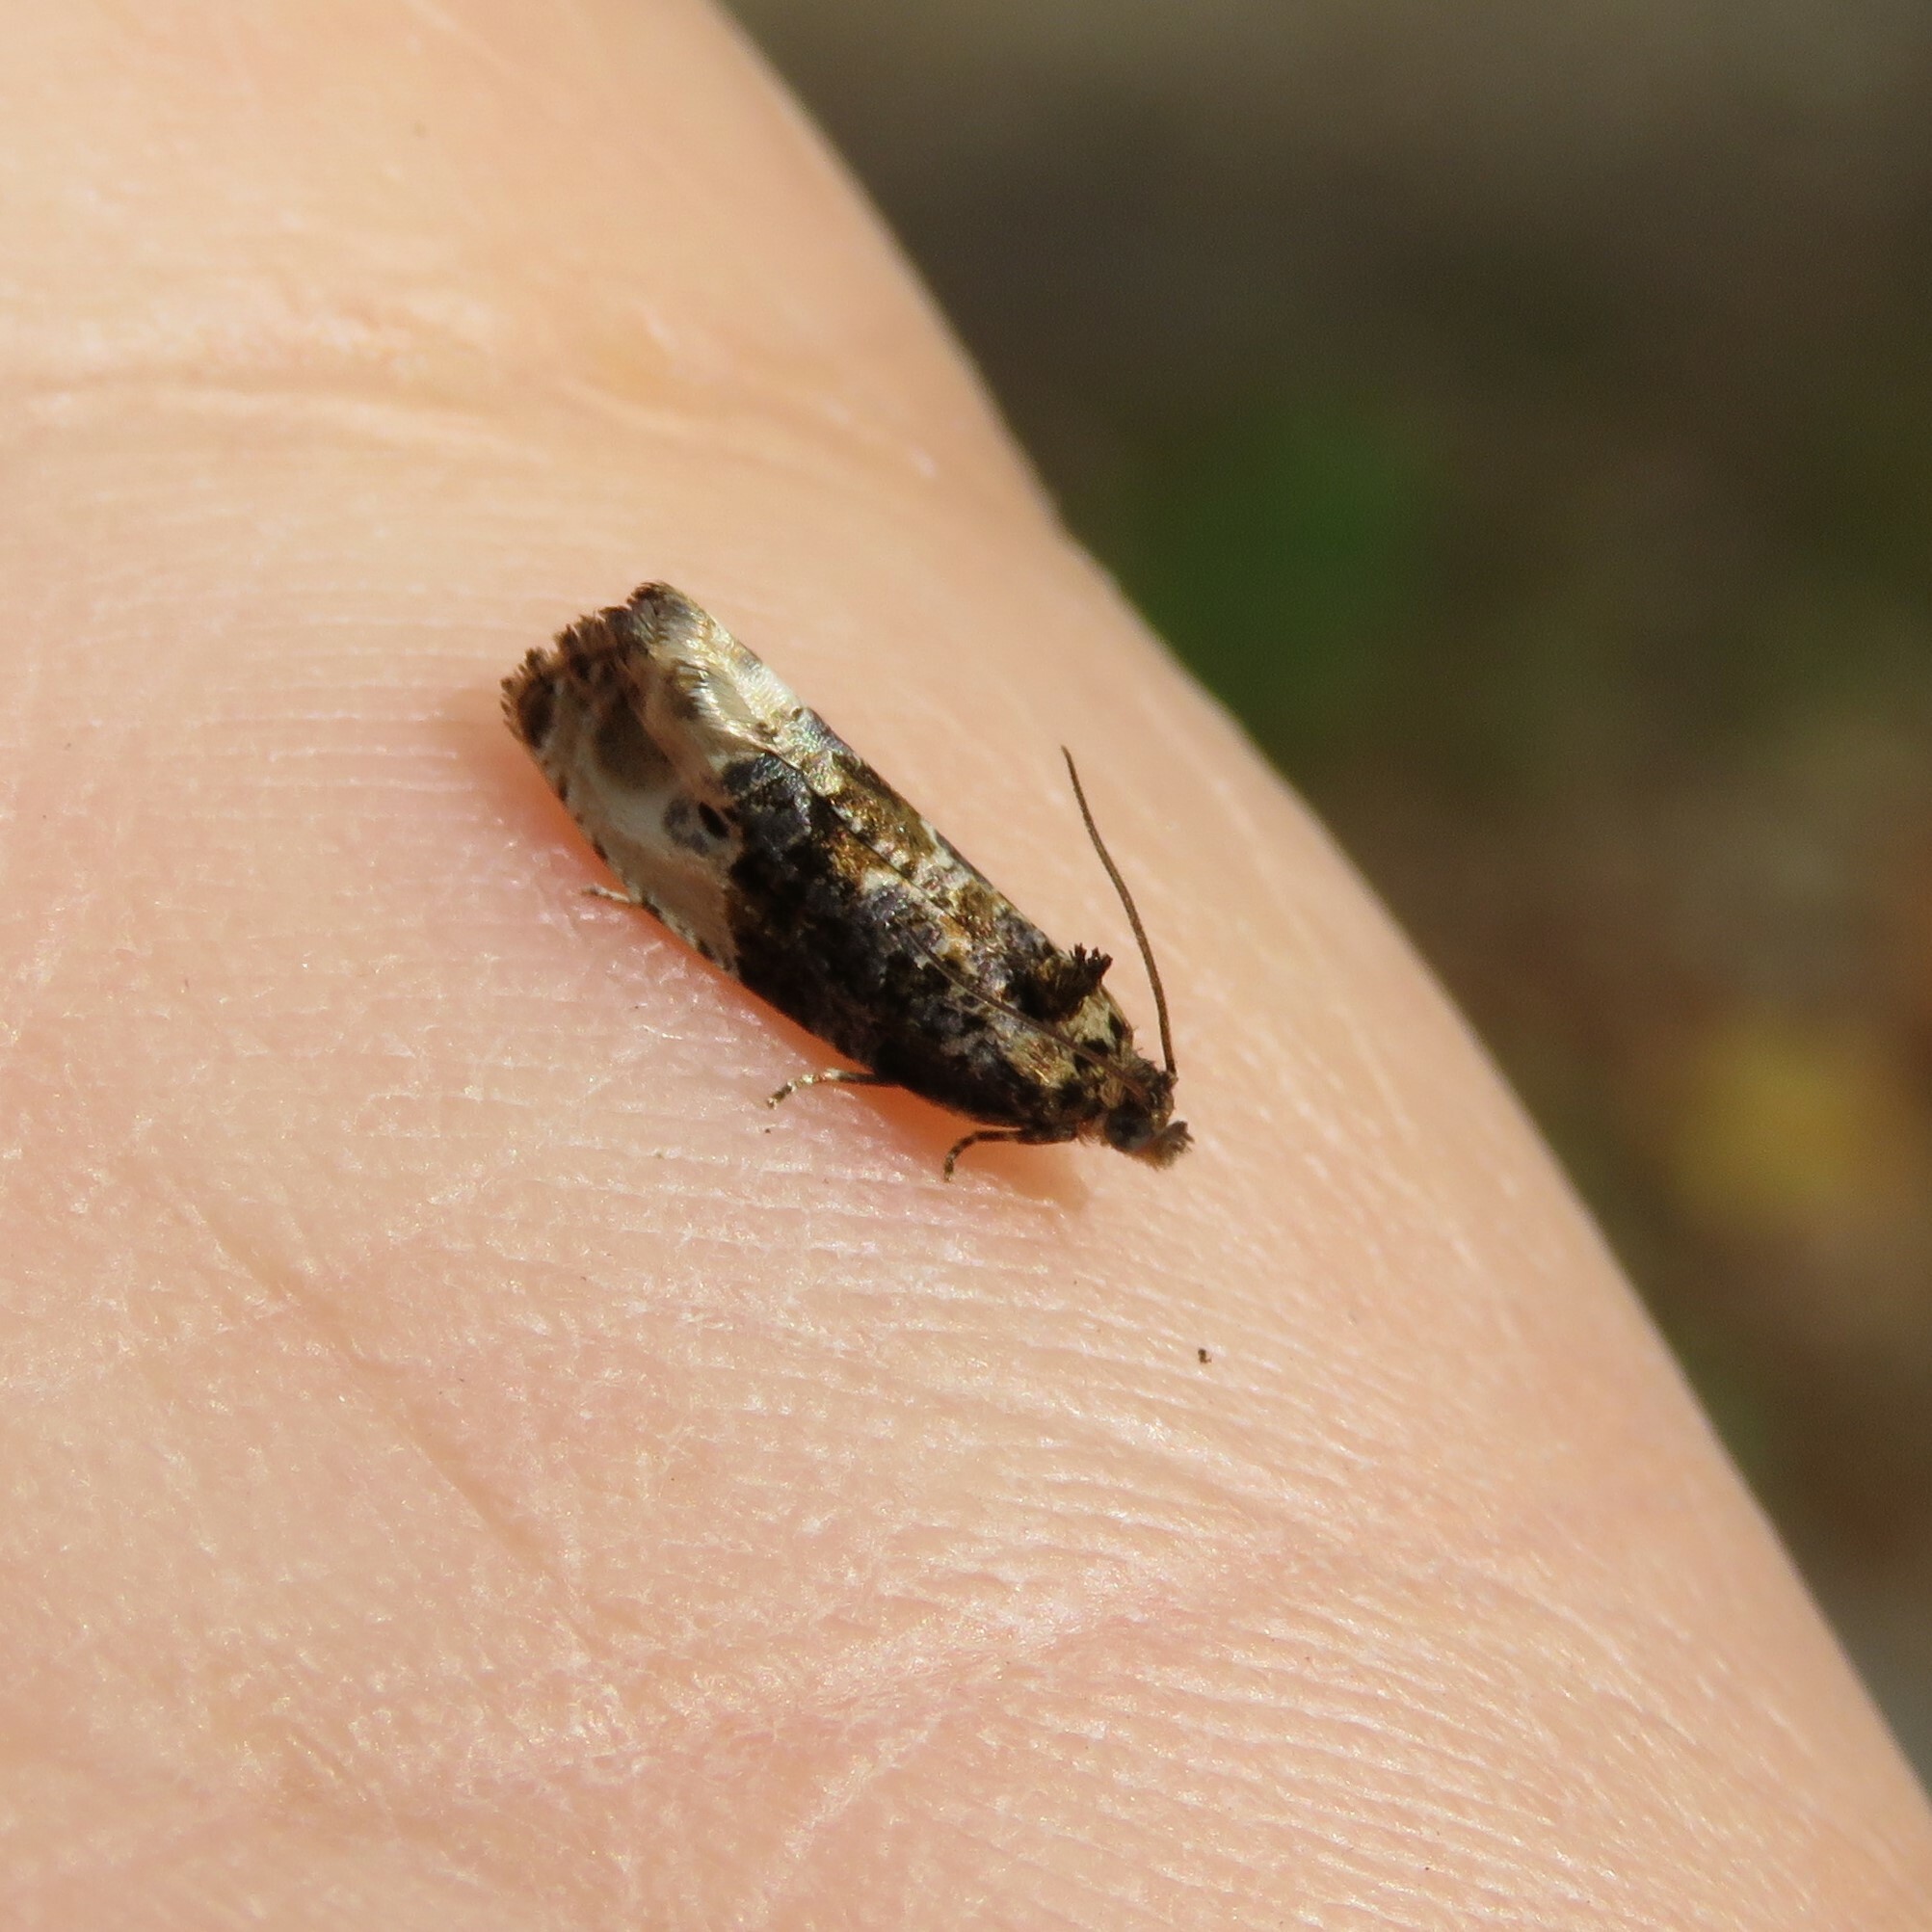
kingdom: Animalia
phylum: Arthropoda
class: Insecta
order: Lepidoptera
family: Tortricidae
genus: Hedya
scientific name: Hedya nubiferana
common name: Marbled orchard tortrix
